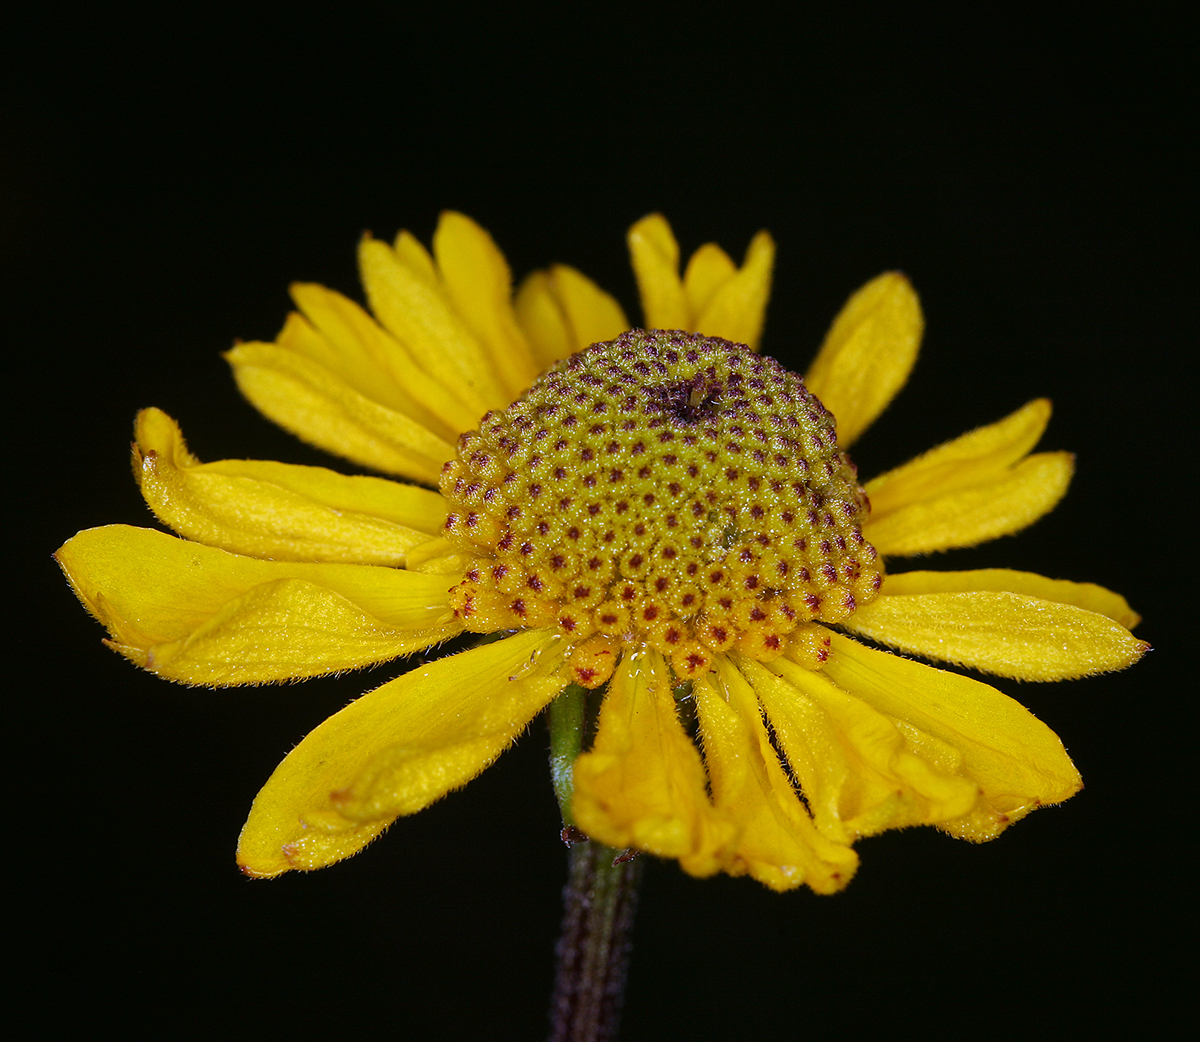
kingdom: Plantae
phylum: Tracheophyta
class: Magnoliopsida
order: Asterales
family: Asteraceae
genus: Helenium
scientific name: Helenium bigelovii
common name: Bigelow's sneezeweed
